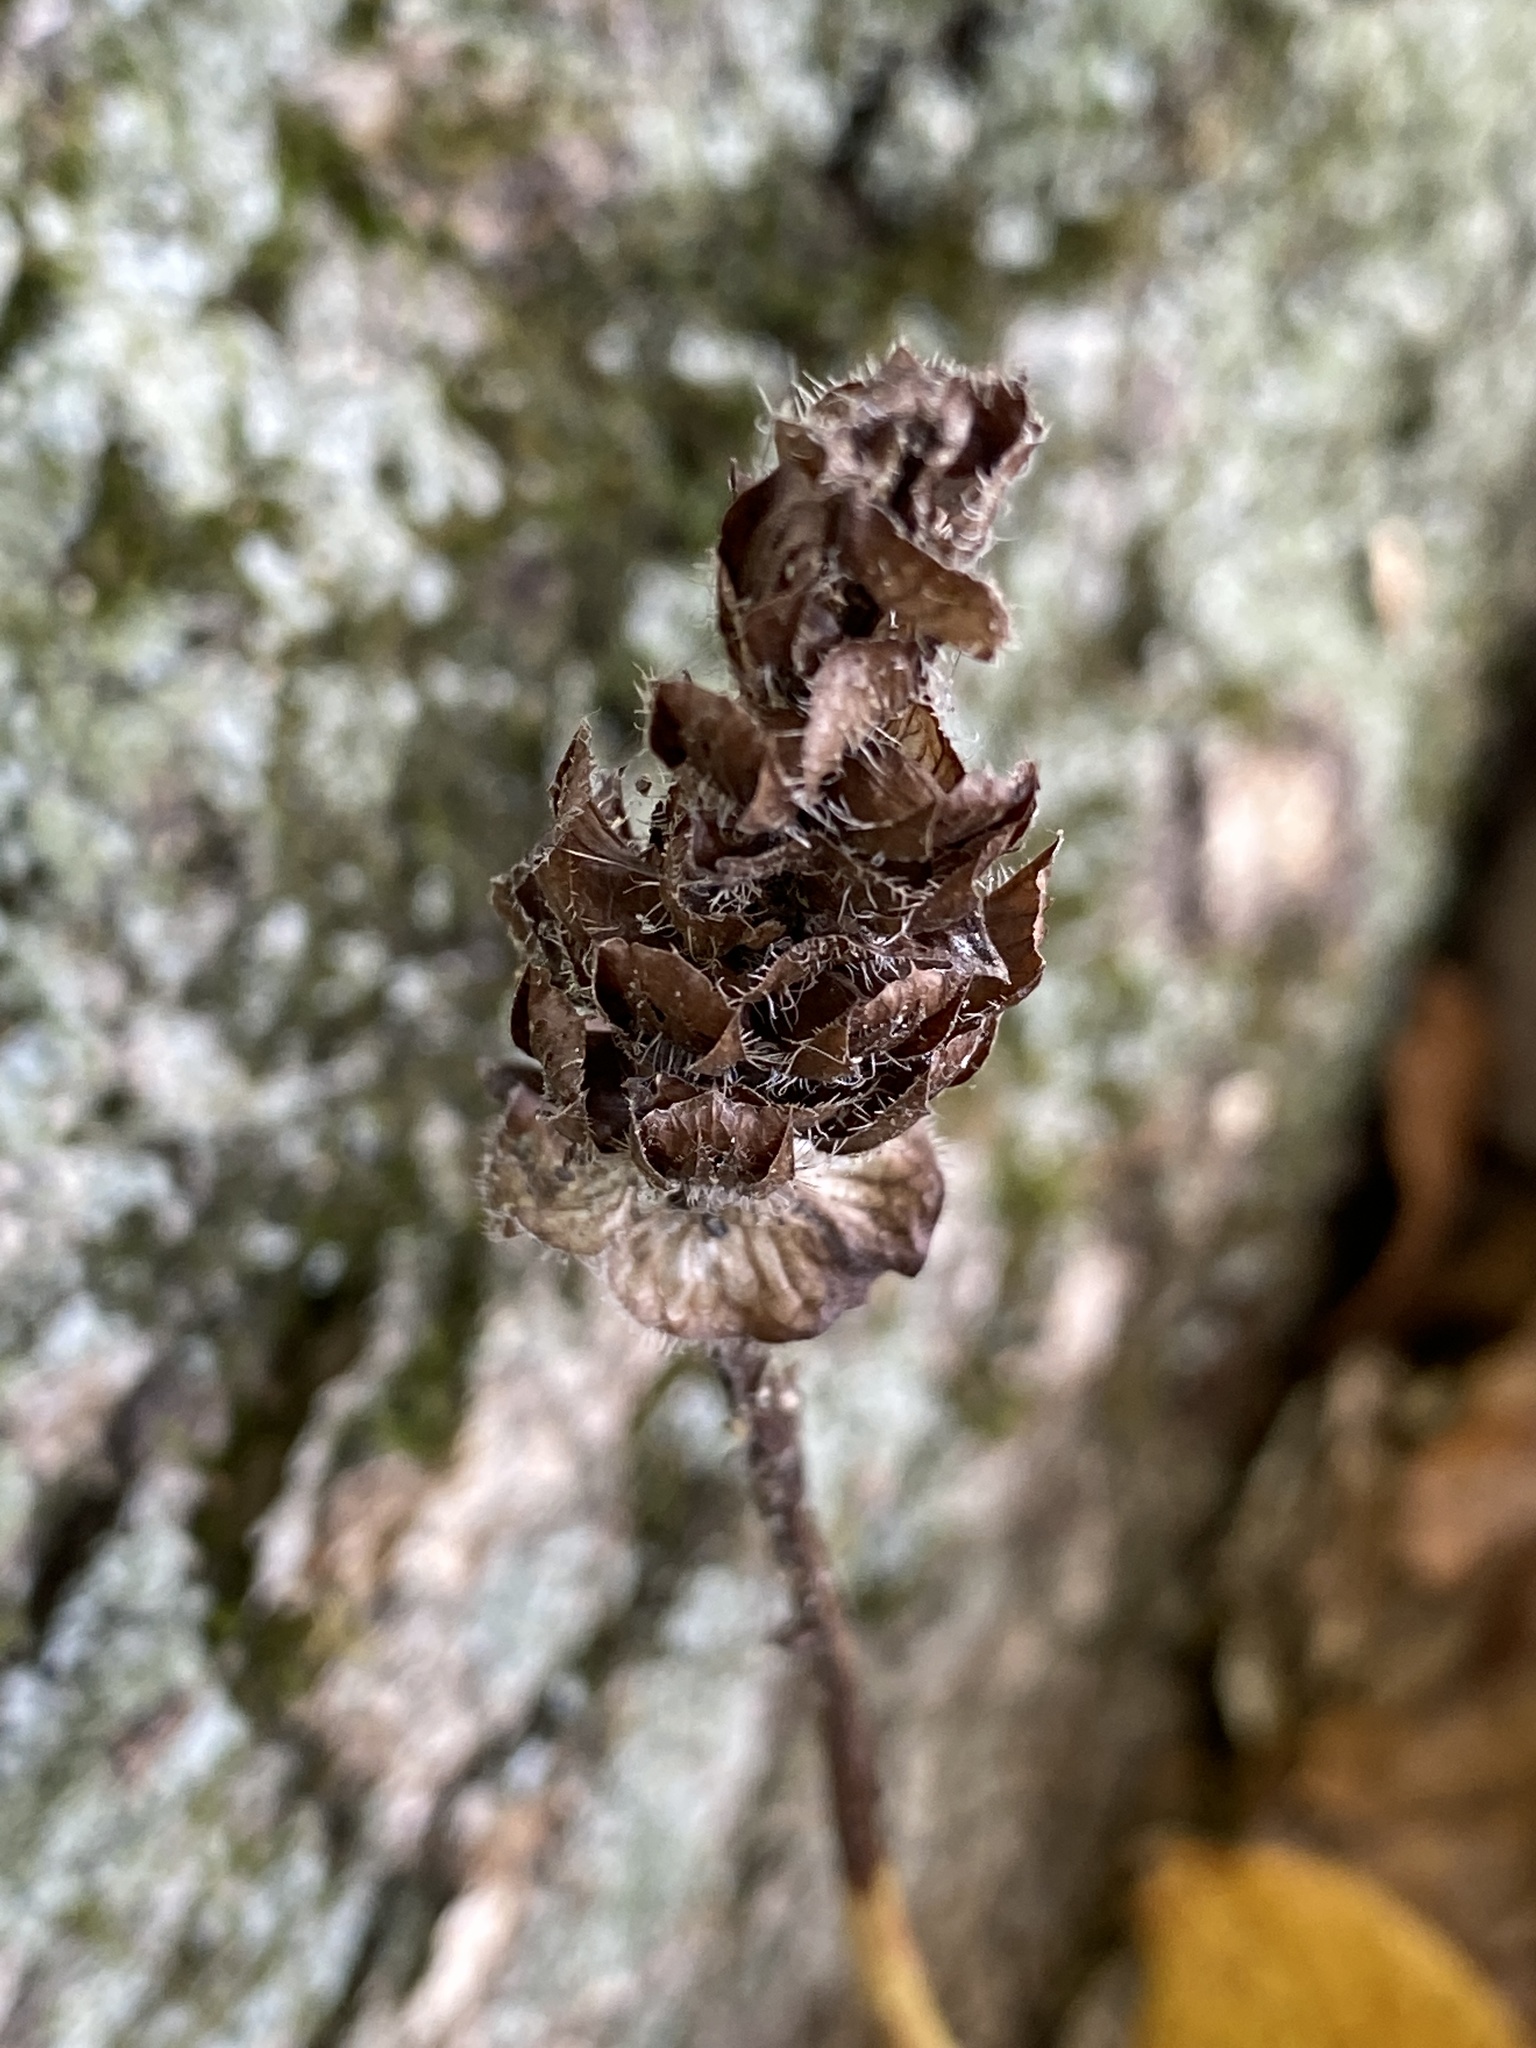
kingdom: Plantae
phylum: Tracheophyta
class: Magnoliopsida
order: Lamiales
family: Lamiaceae
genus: Prunella
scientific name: Prunella vulgaris
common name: Heal-all
